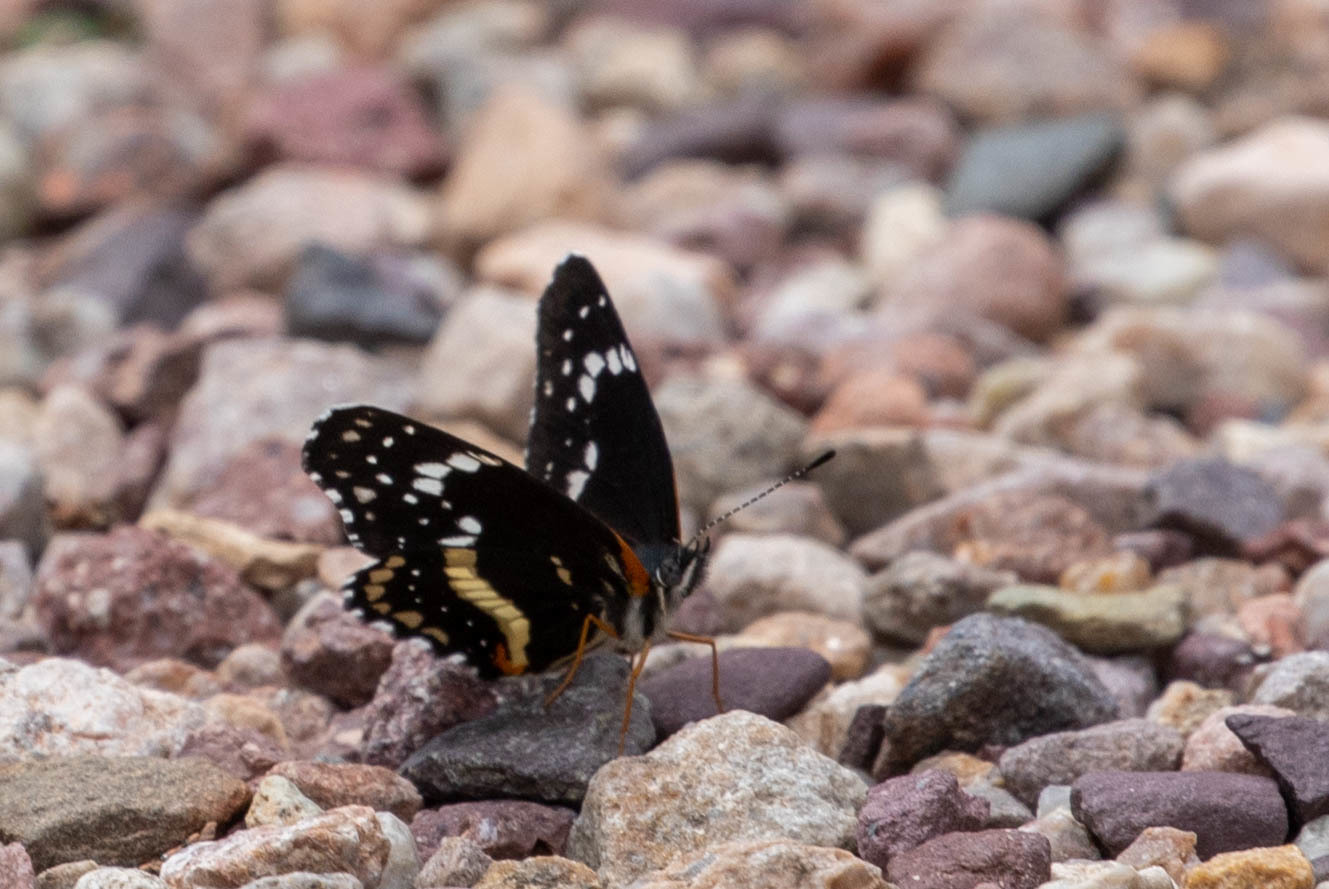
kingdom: Animalia
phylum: Arthropoda
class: Insecta
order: Lepidoptera
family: Nymphalidae
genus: Chlosyne
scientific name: Chlosyne lacinia
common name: Bordered patch
